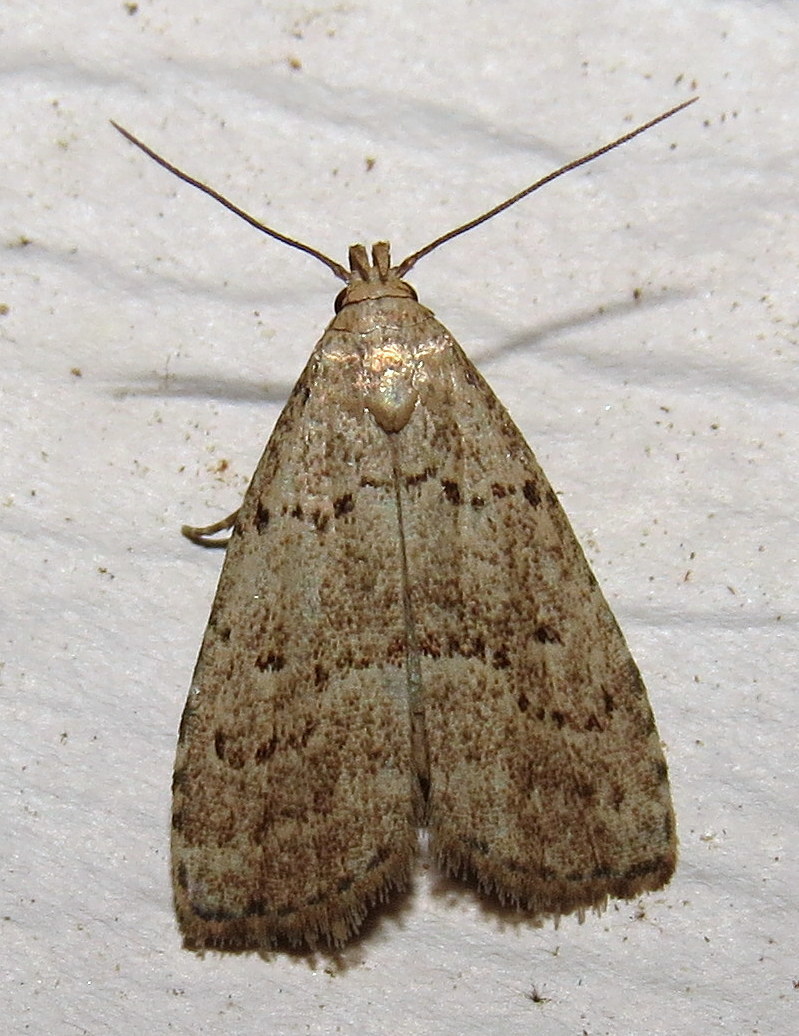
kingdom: Animalia
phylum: Arthropoda
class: Insecta
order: Lepidoptera
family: Erebidae
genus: Hypenodes
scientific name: Hypenodes fractilinea
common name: Broken-line hypenodes moth
